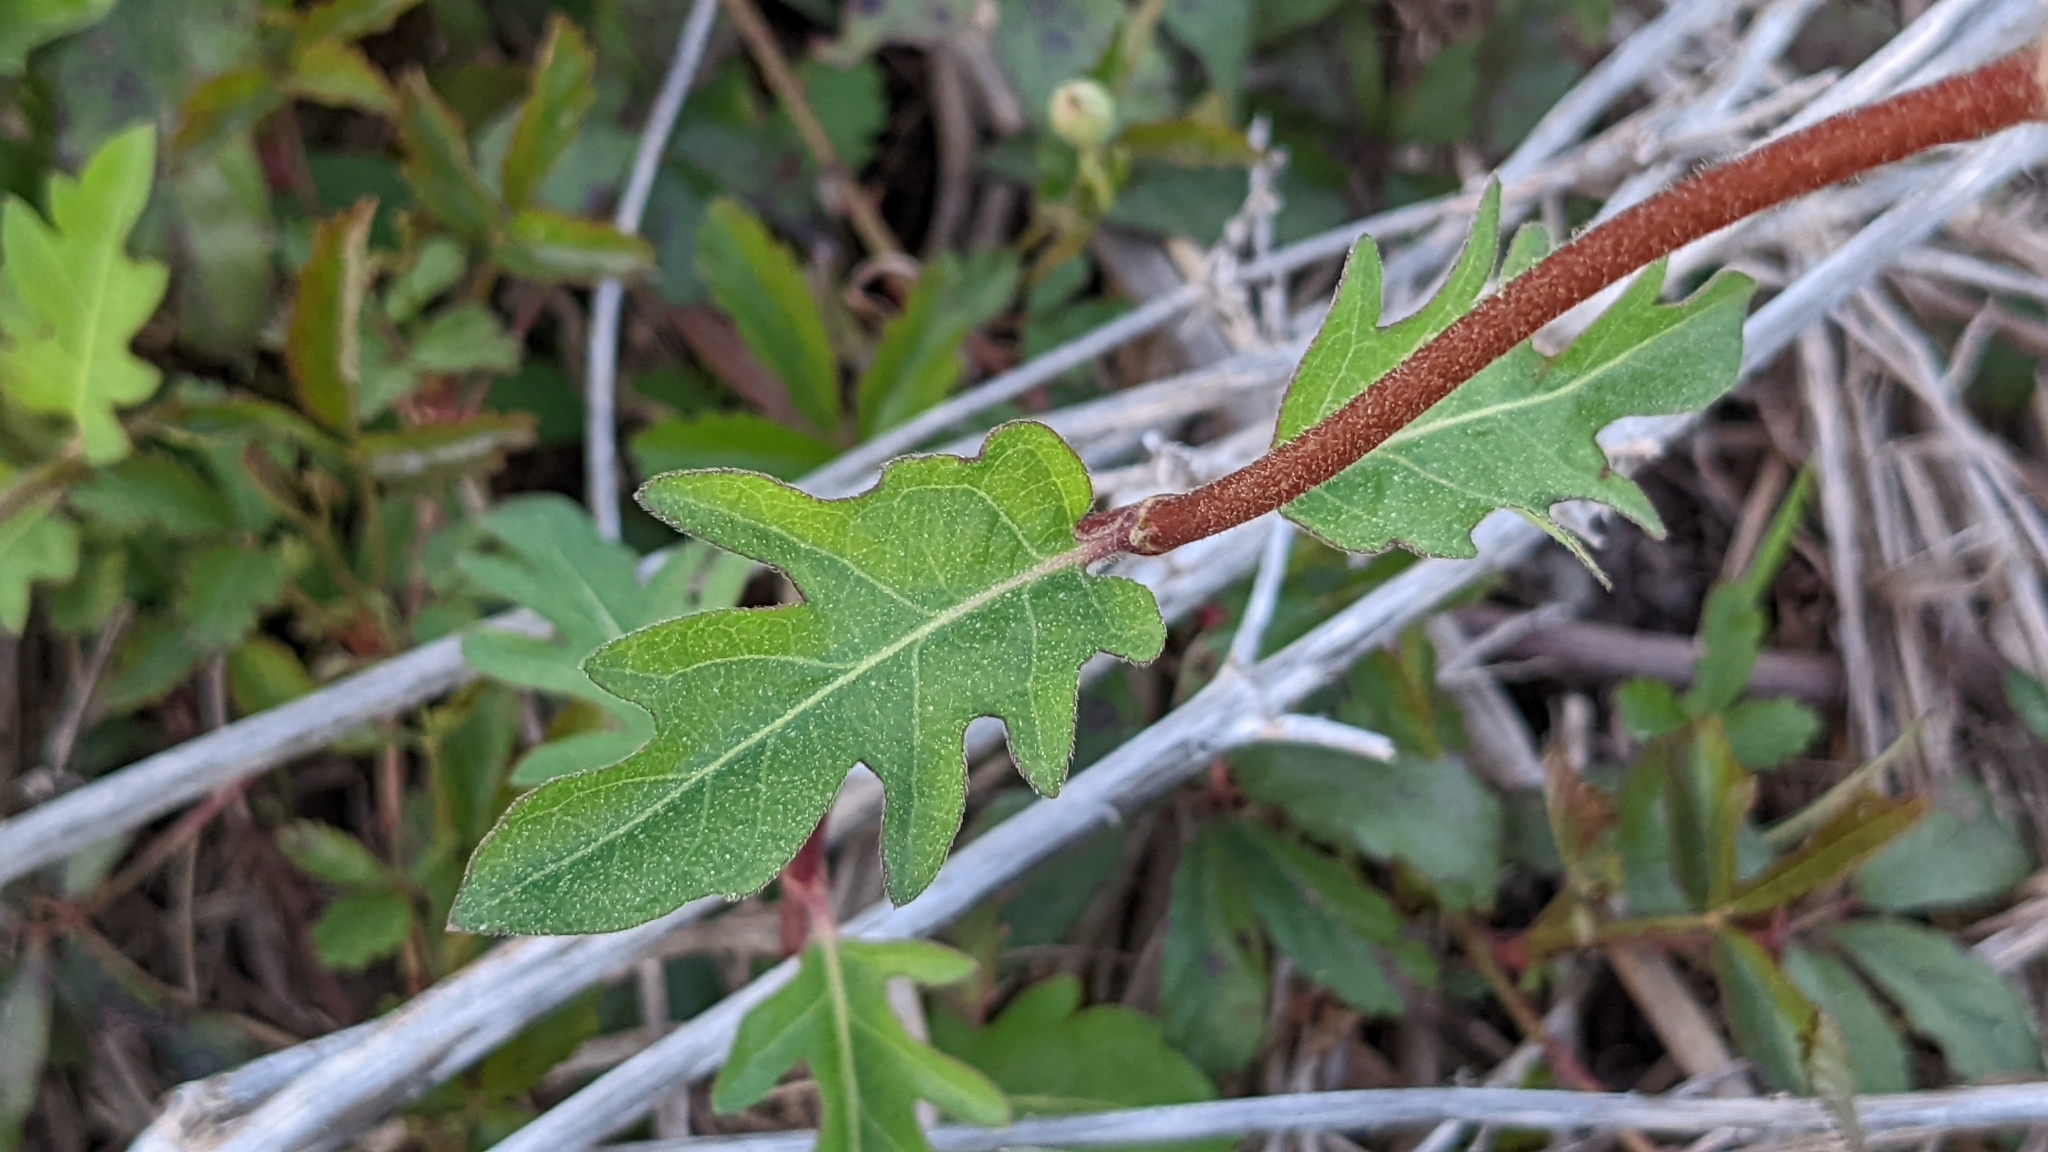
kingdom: Plantae
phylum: Tracheophyta
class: Magnoliopsida
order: Dipsacales
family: Caprifoliaceae
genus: Lonicera
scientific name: Lonicera japonica
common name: Japanese honeysuckle
